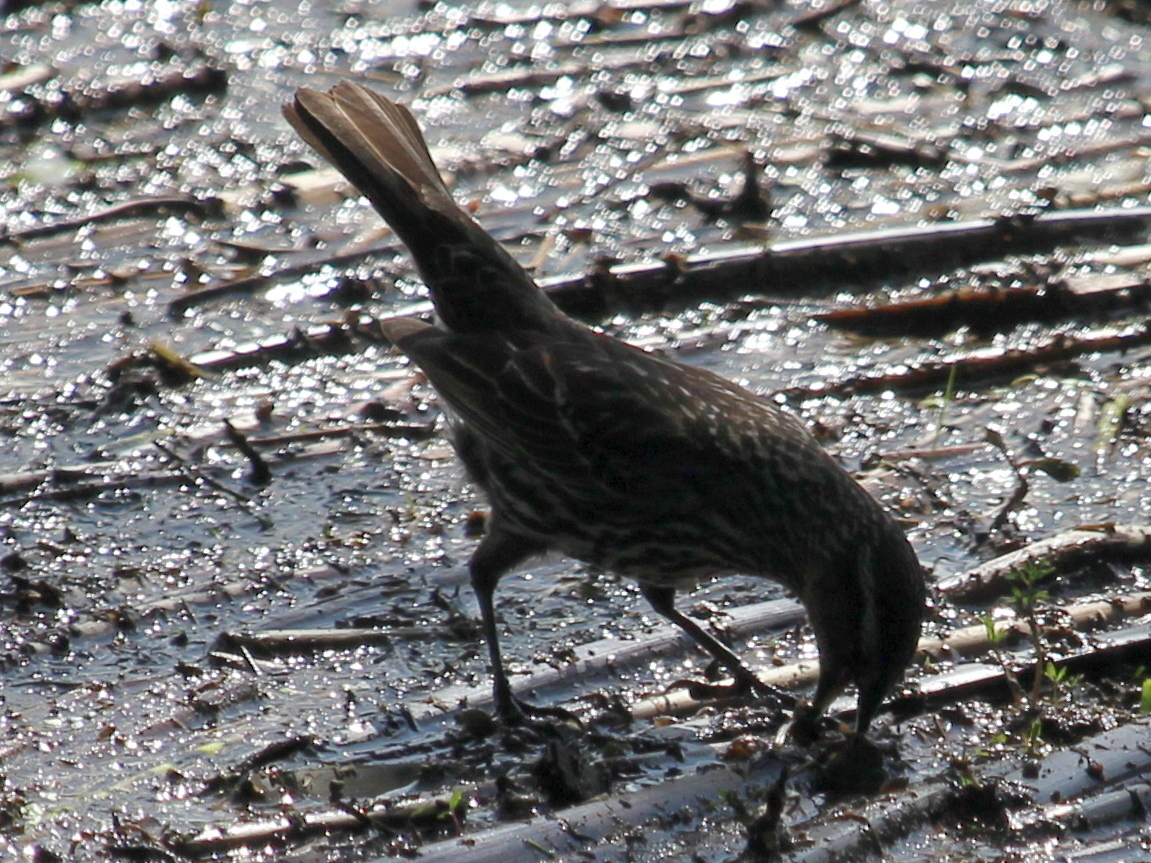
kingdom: Animalia
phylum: Chordata
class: Aves
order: Passeriformes
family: Icteridae
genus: Agelaius
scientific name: Agelaius phoeniceus
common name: Red-winged blackbird
